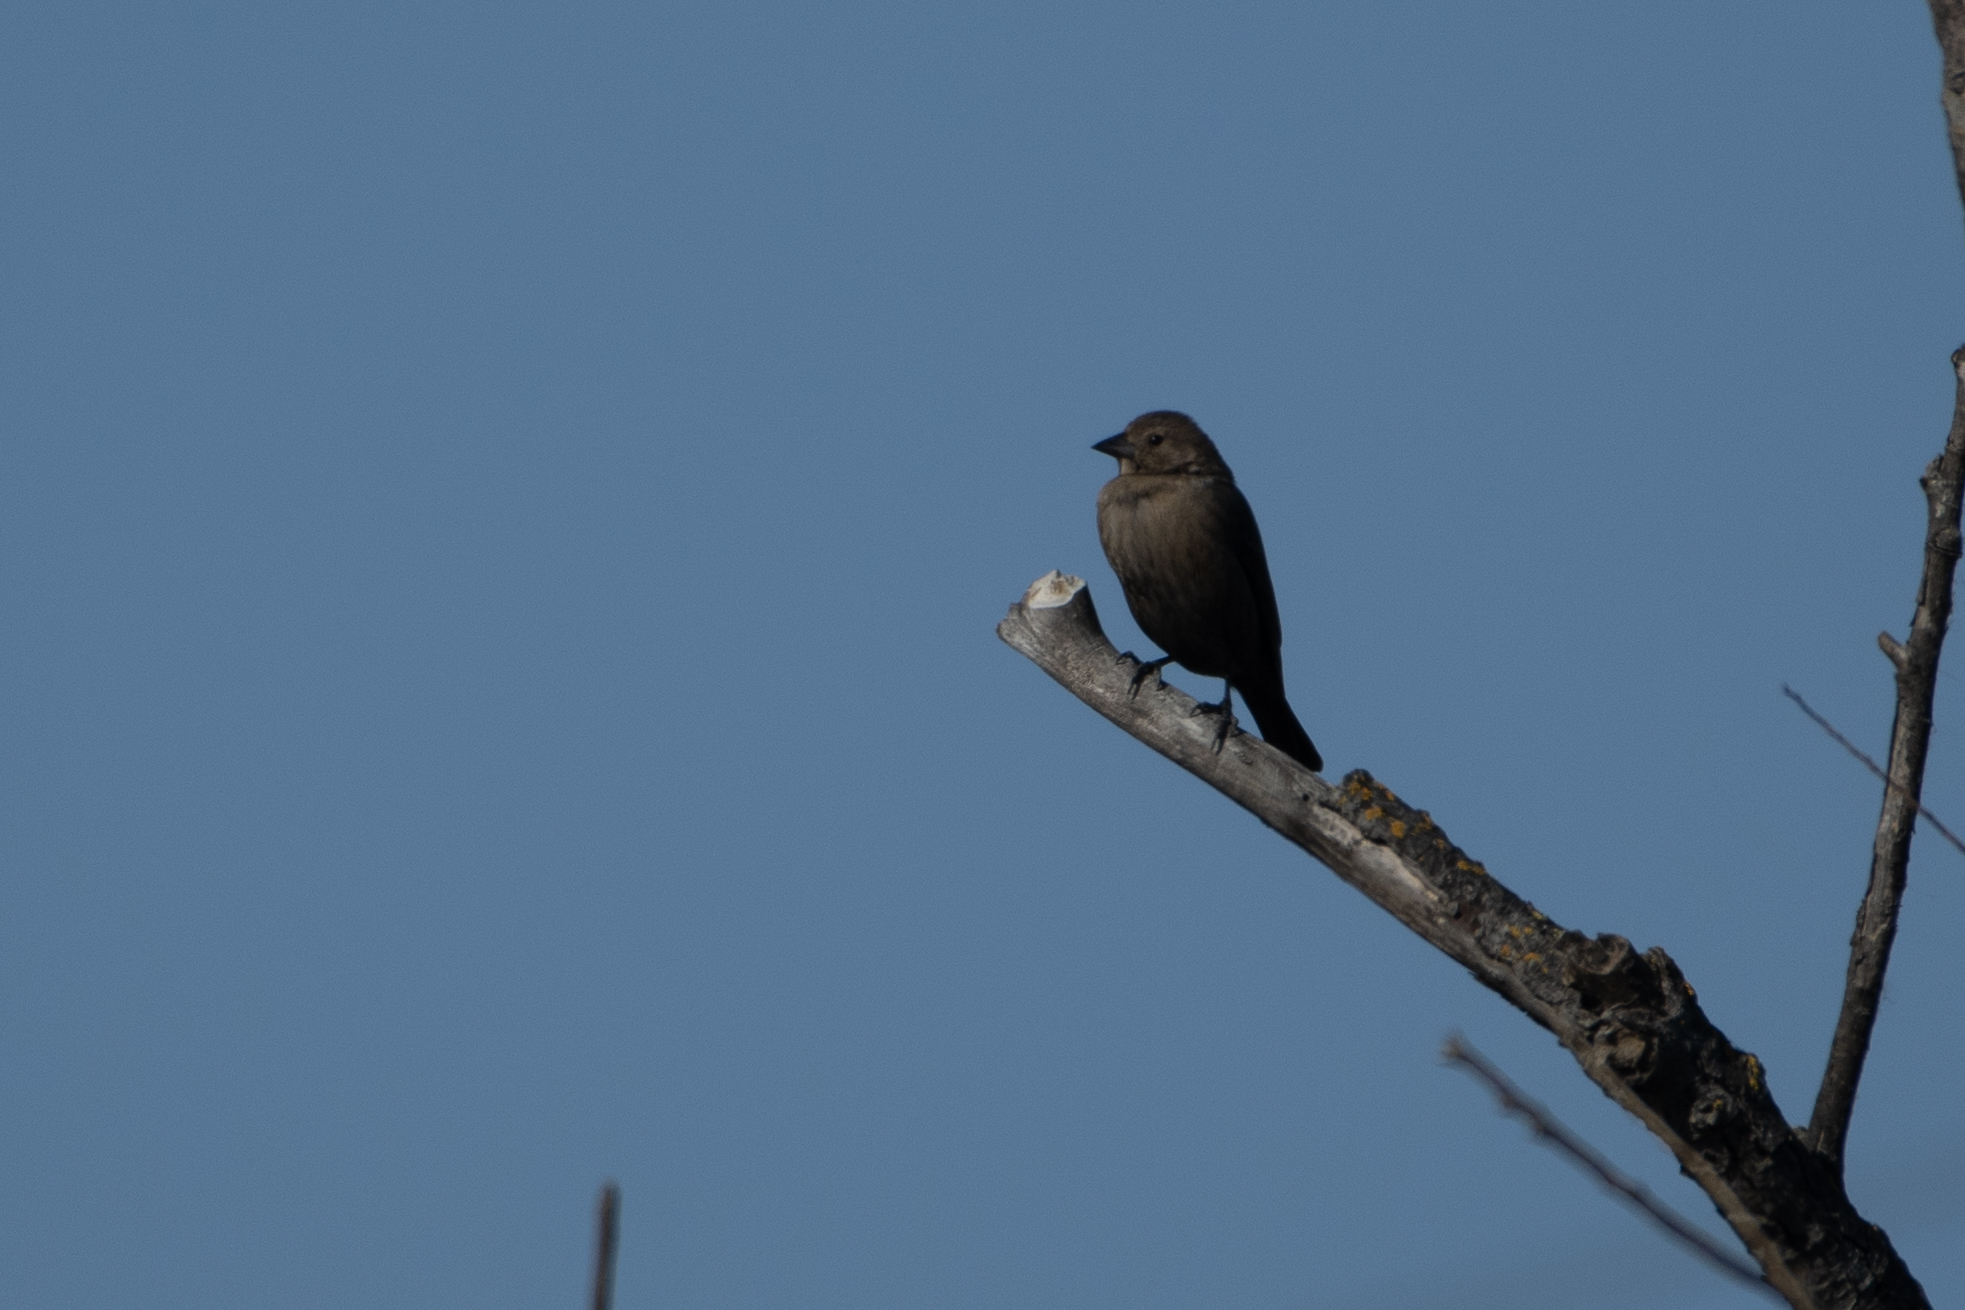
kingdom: Animalia
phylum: Chordata
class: Aves
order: Passeriformes
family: Icteridae
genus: Molothrus
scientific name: Molothrus ater
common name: Brown-headed cowbird
